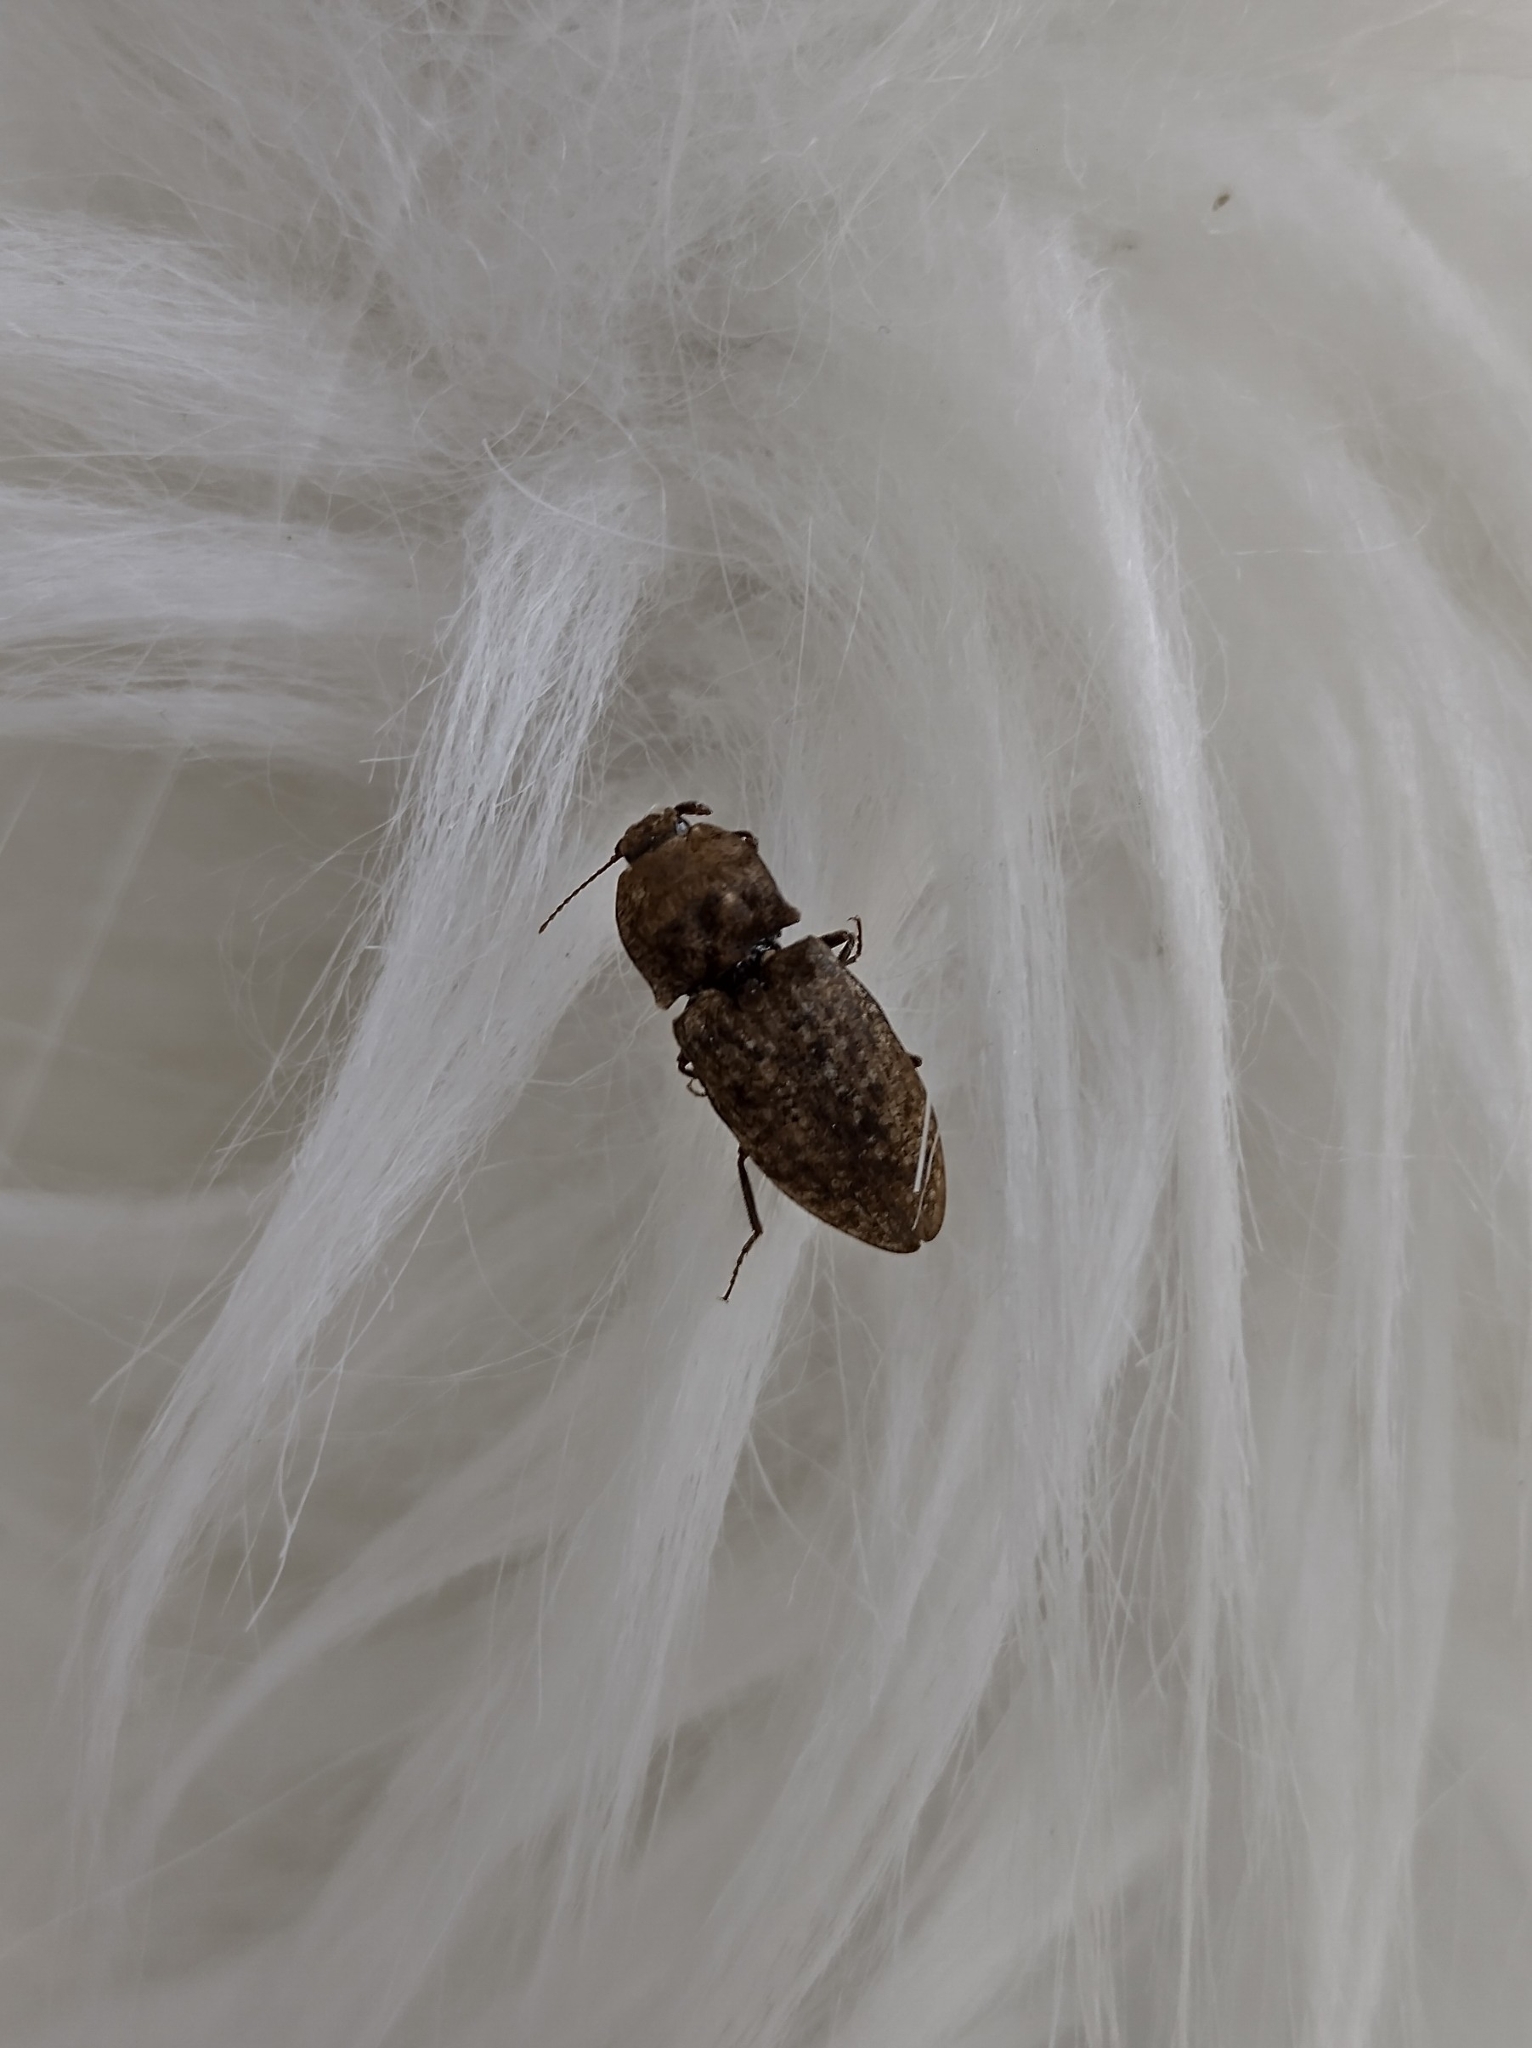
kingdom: Animalia
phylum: Arthropoda
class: Insecta
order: Coleoptera
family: Elateridae
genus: Agrypnus
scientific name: Agrypnus murinus
